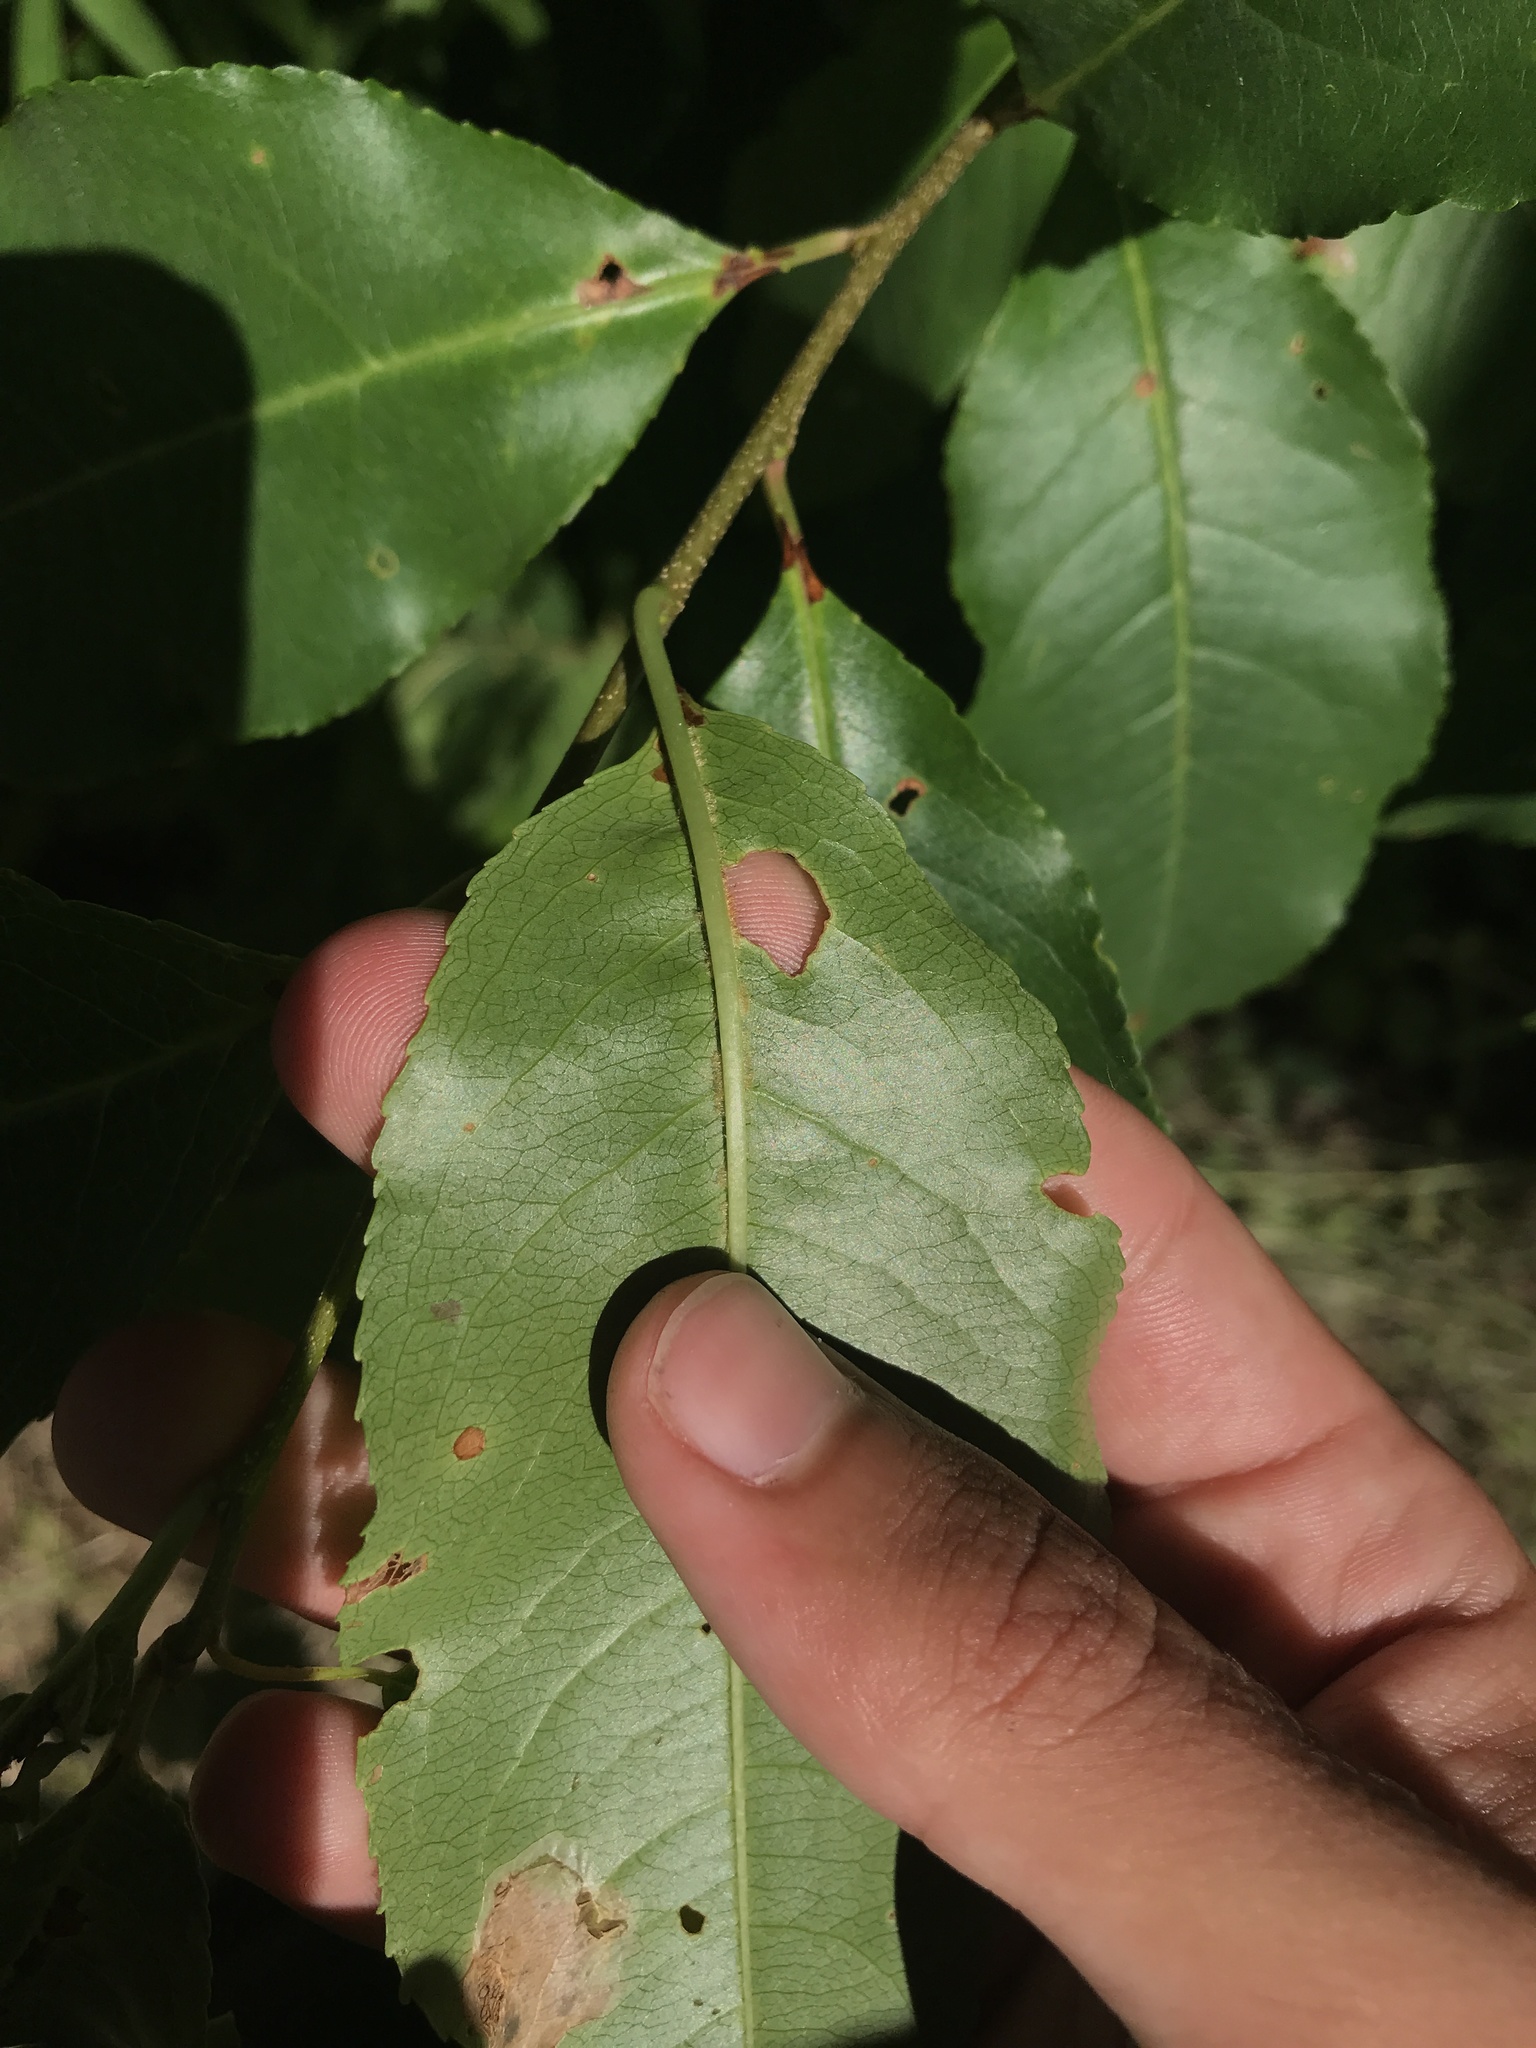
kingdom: Plantae
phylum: Tracheophyta
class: Magnoliopsida
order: Rosales
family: Rosaceae
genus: Prunus
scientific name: Prunus serotina
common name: Black cherry
